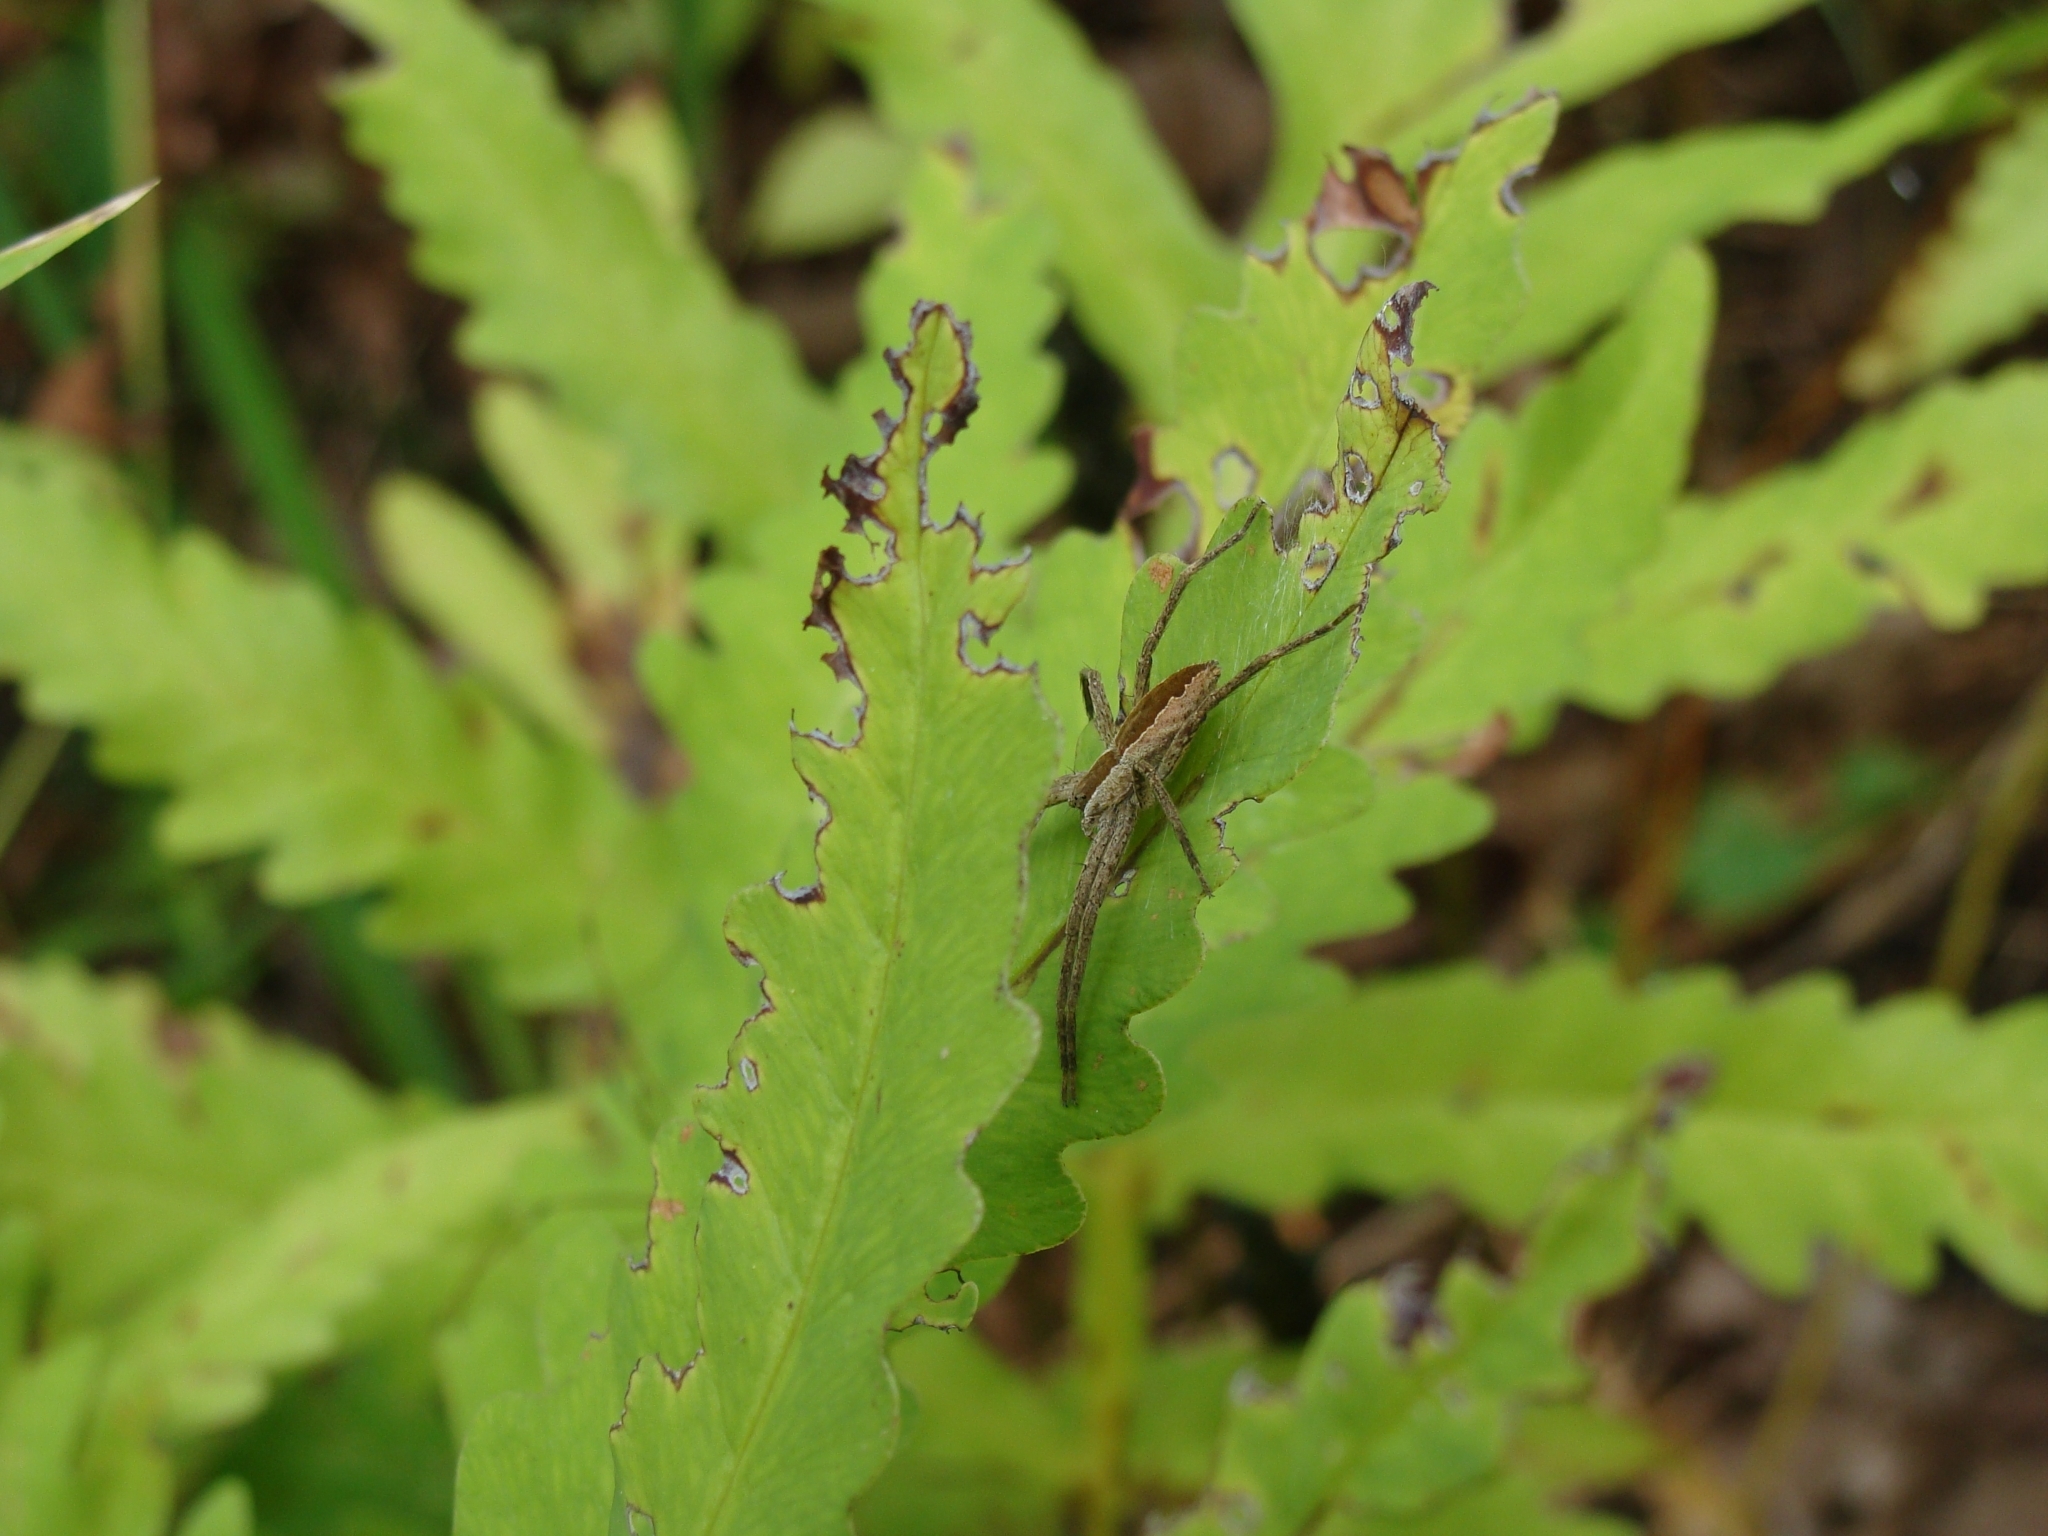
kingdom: Animalia
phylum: Arthropoda
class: Arachnida
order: Araneae
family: Pisauridae
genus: Pisaurina
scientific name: Pisaurina mira
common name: American nursery web spider
